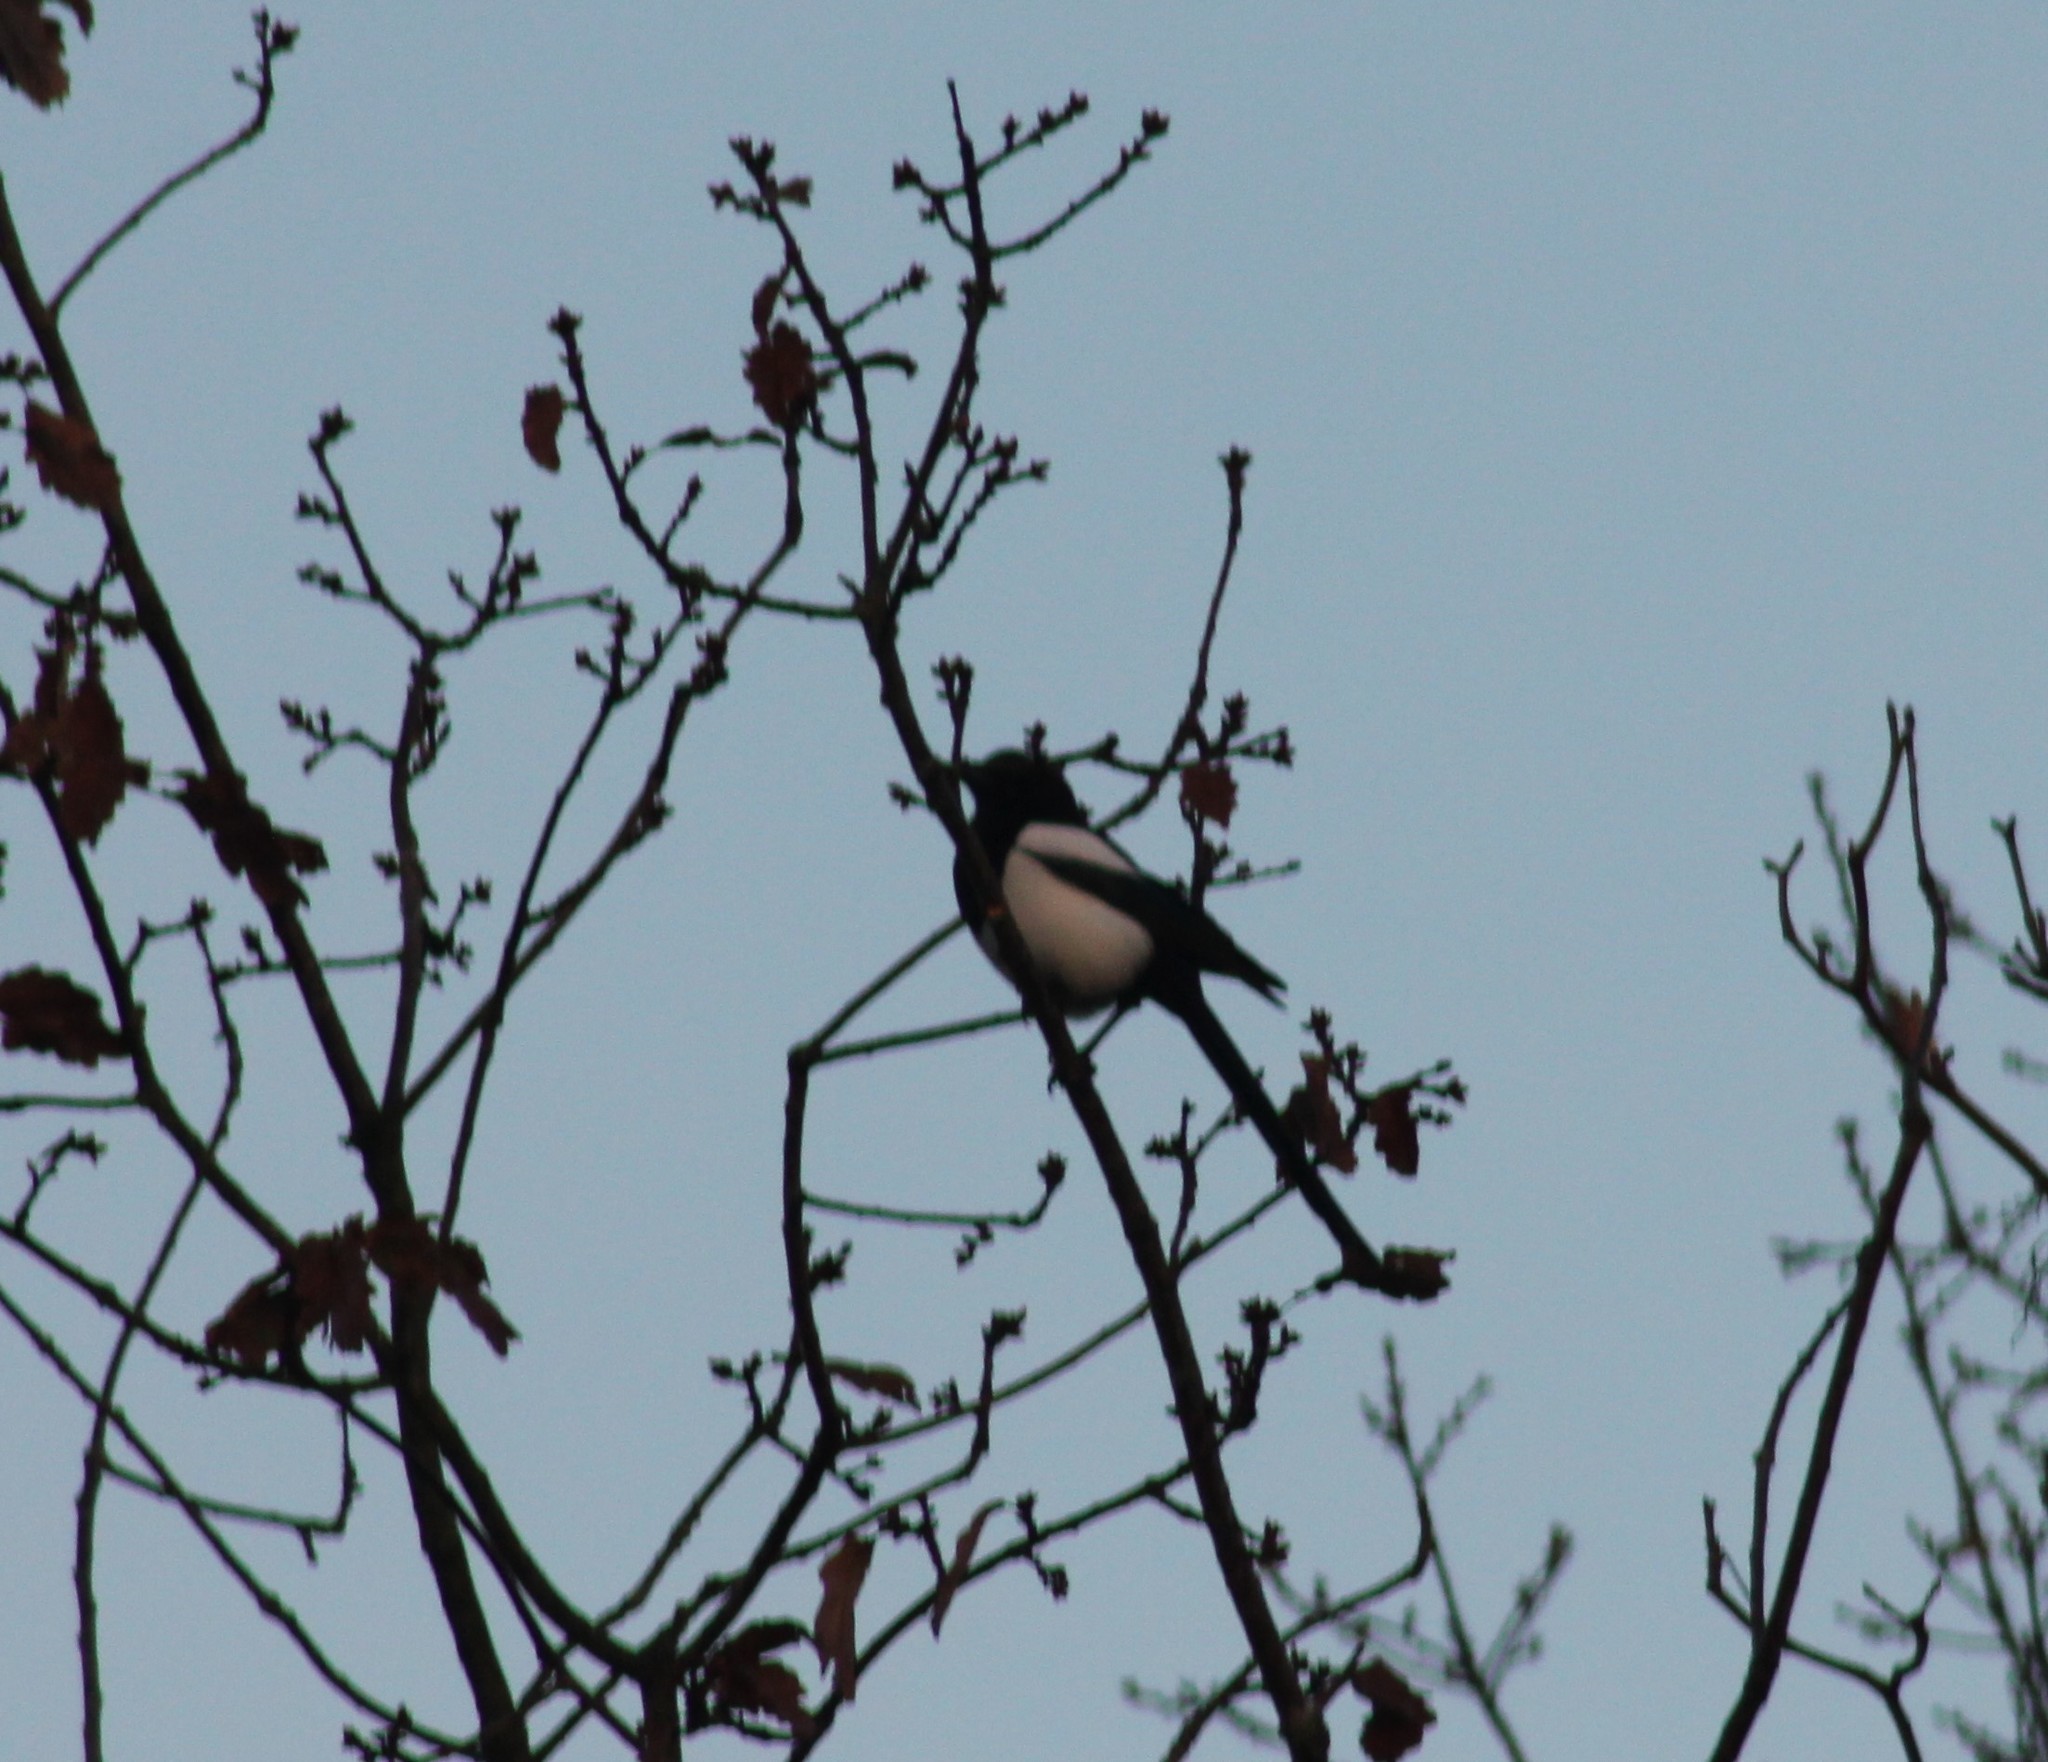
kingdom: Animalia
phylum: Chordata
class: Aves
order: Passeriformes
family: Corvidae
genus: Pica
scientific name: Pica pica
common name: Eurasian magpie
